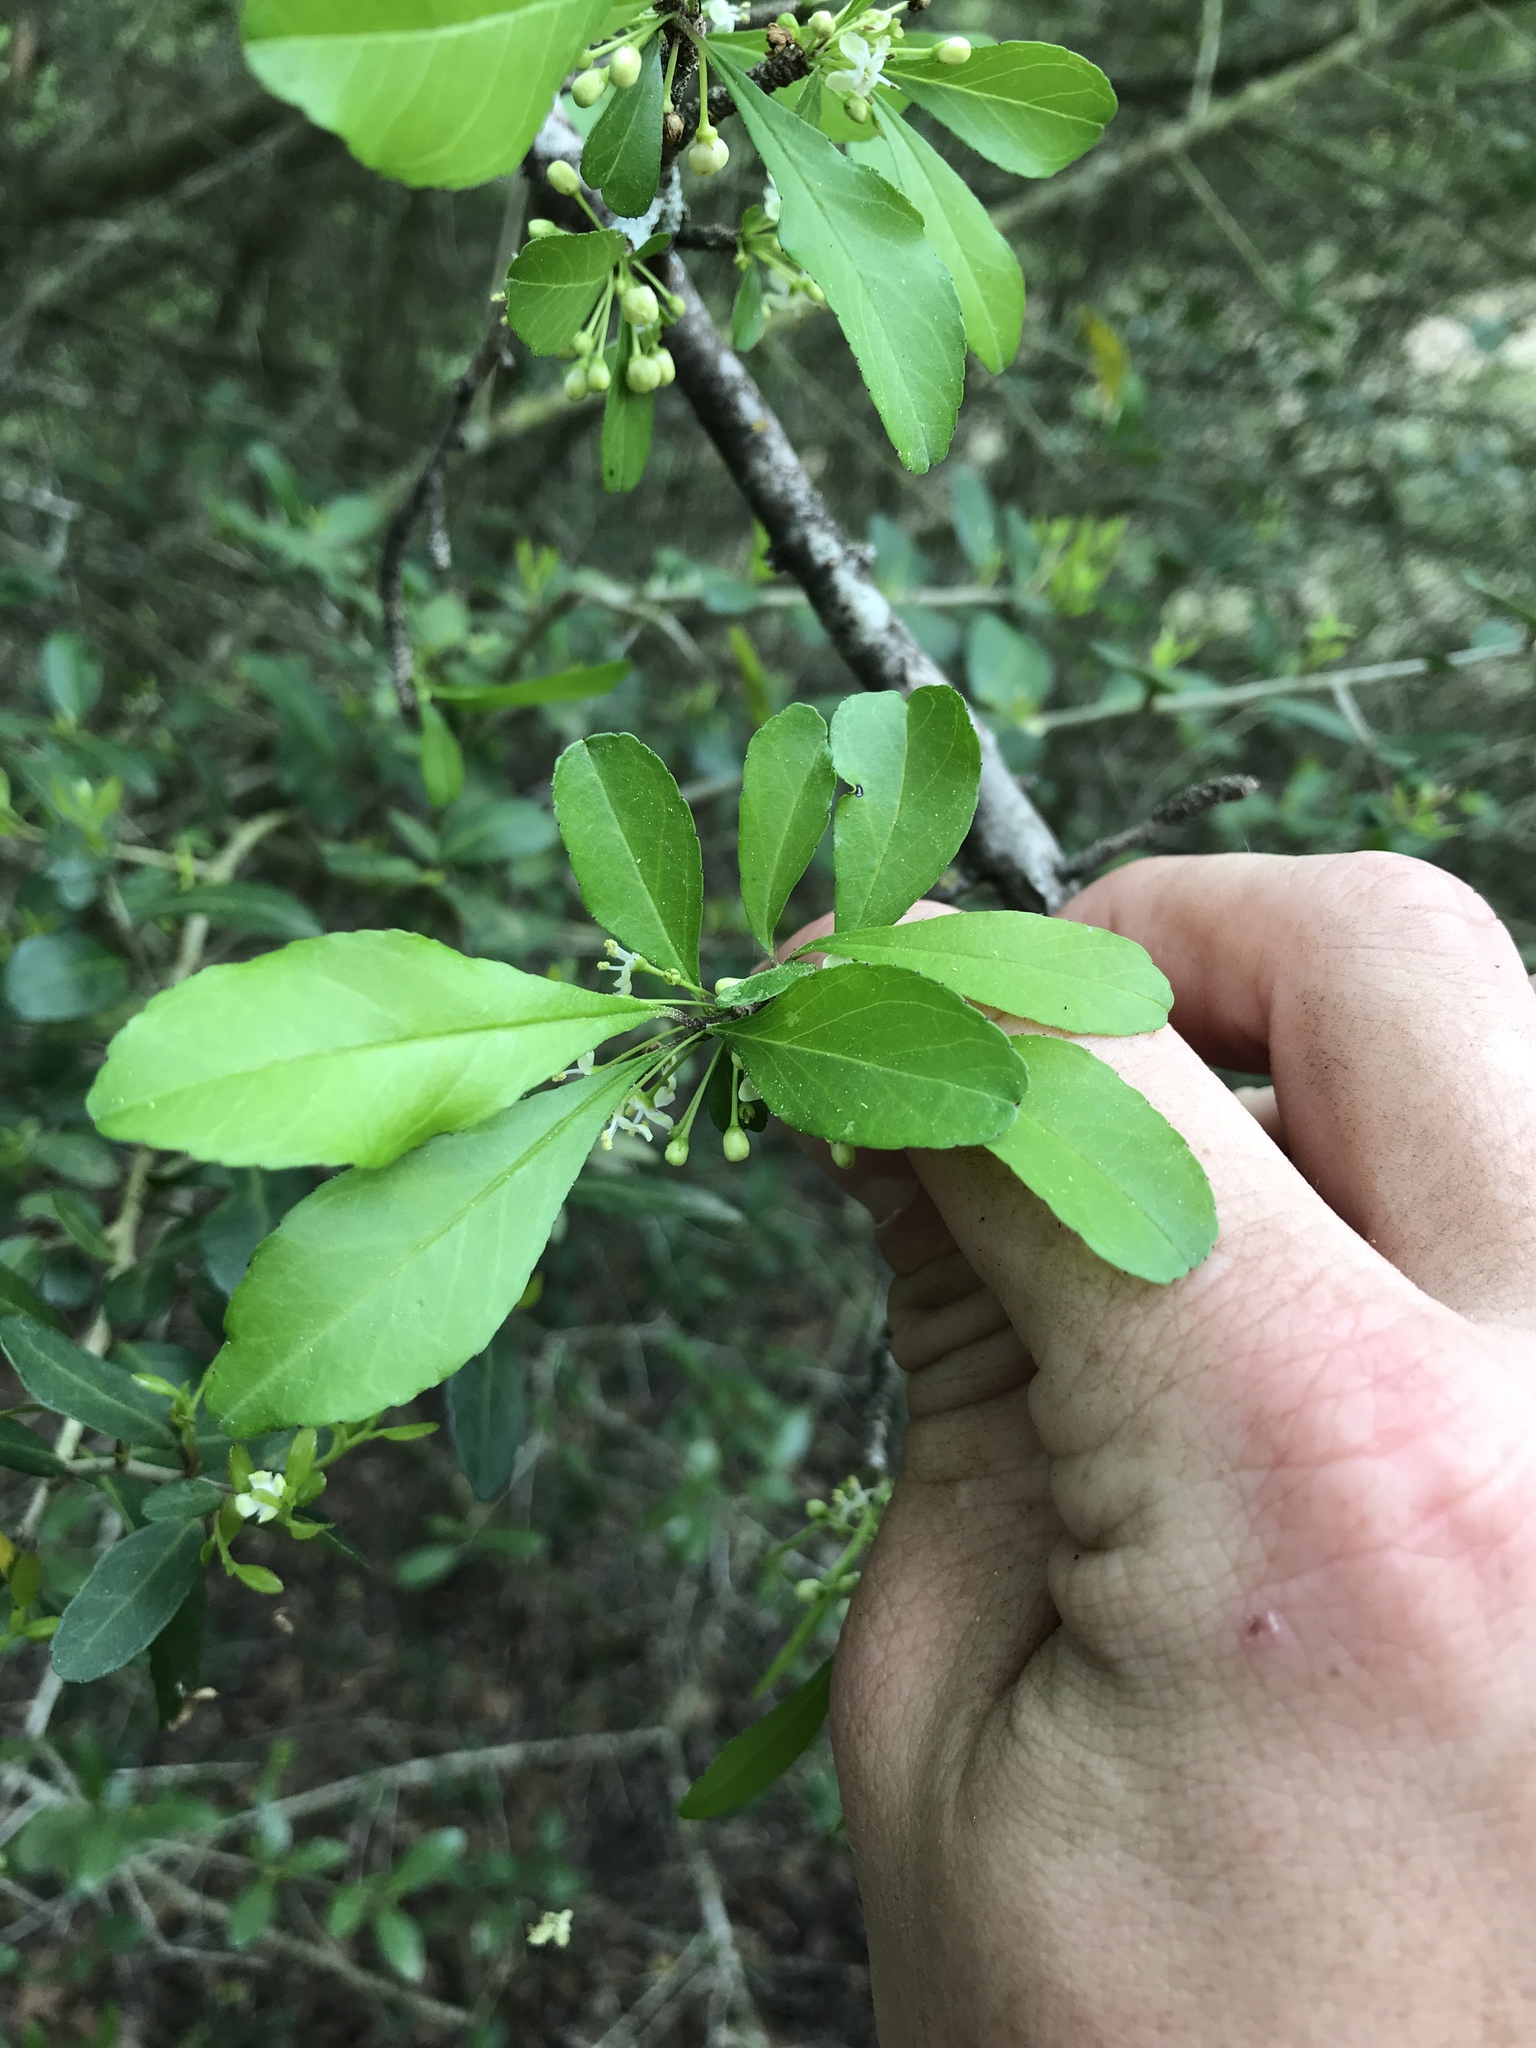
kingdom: Plantae
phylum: Tracheophyta
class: Magnoliopsida
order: Aquifoliales
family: Aquifoliaceae
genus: Ilex
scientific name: Ilex decidua
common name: Possum-haw
